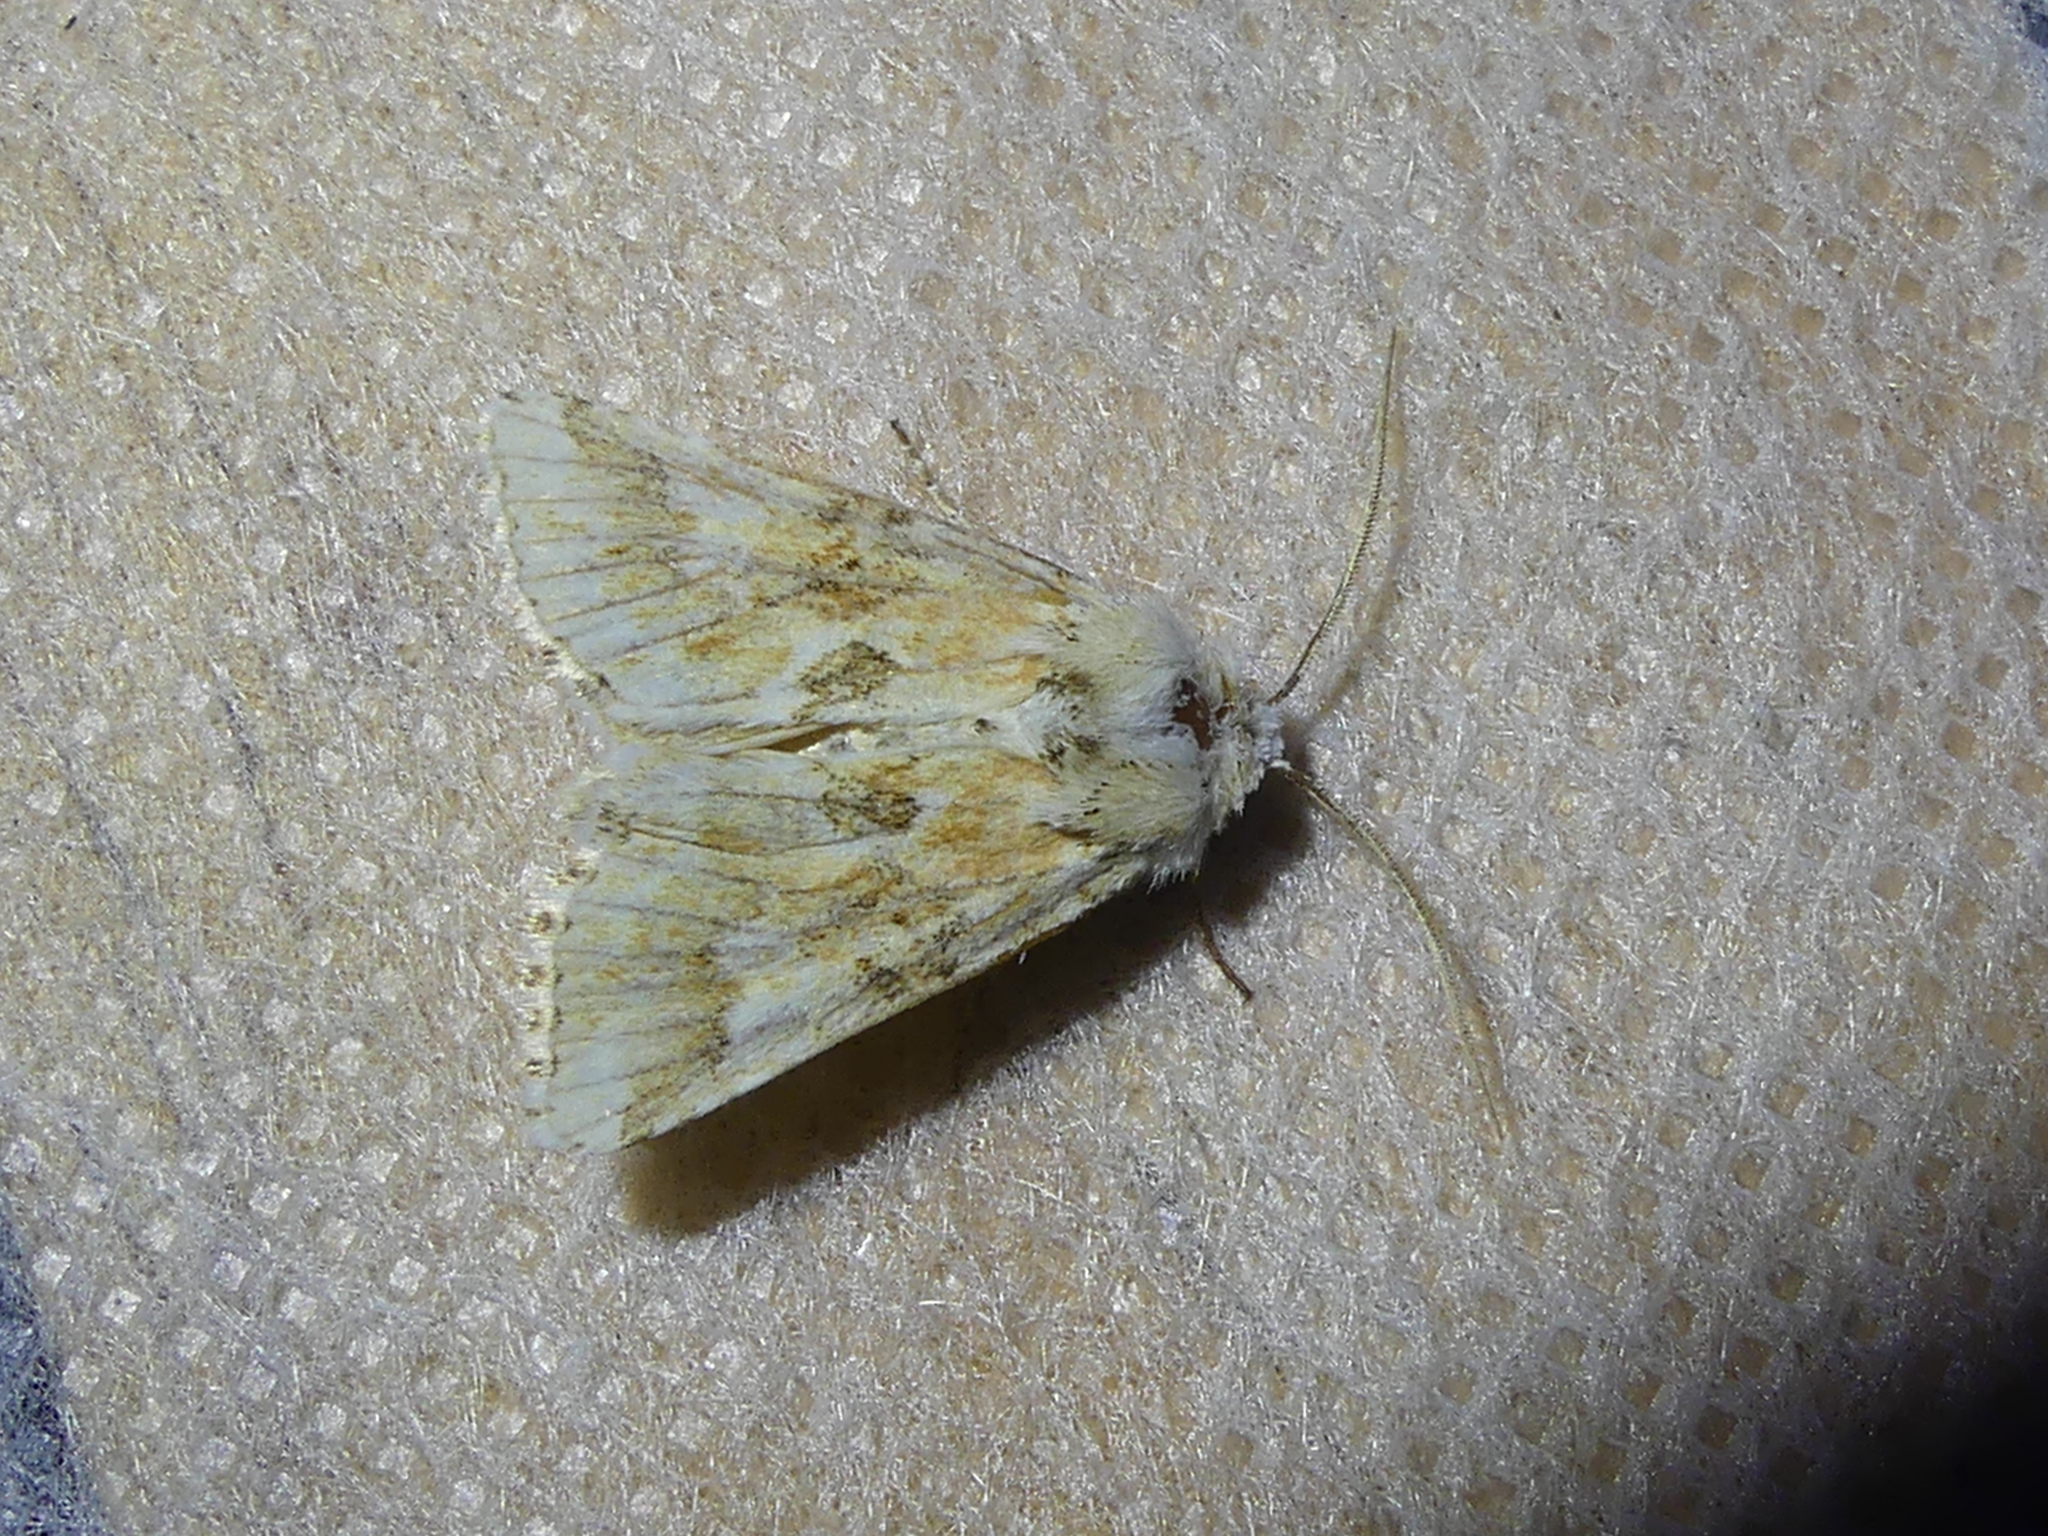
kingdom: Animalia
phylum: Arthropoda
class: Insecta
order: Lepidoptera
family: Noctuidae
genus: Eremobia
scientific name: Eremobia ochroleuca
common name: Dusky sallow
